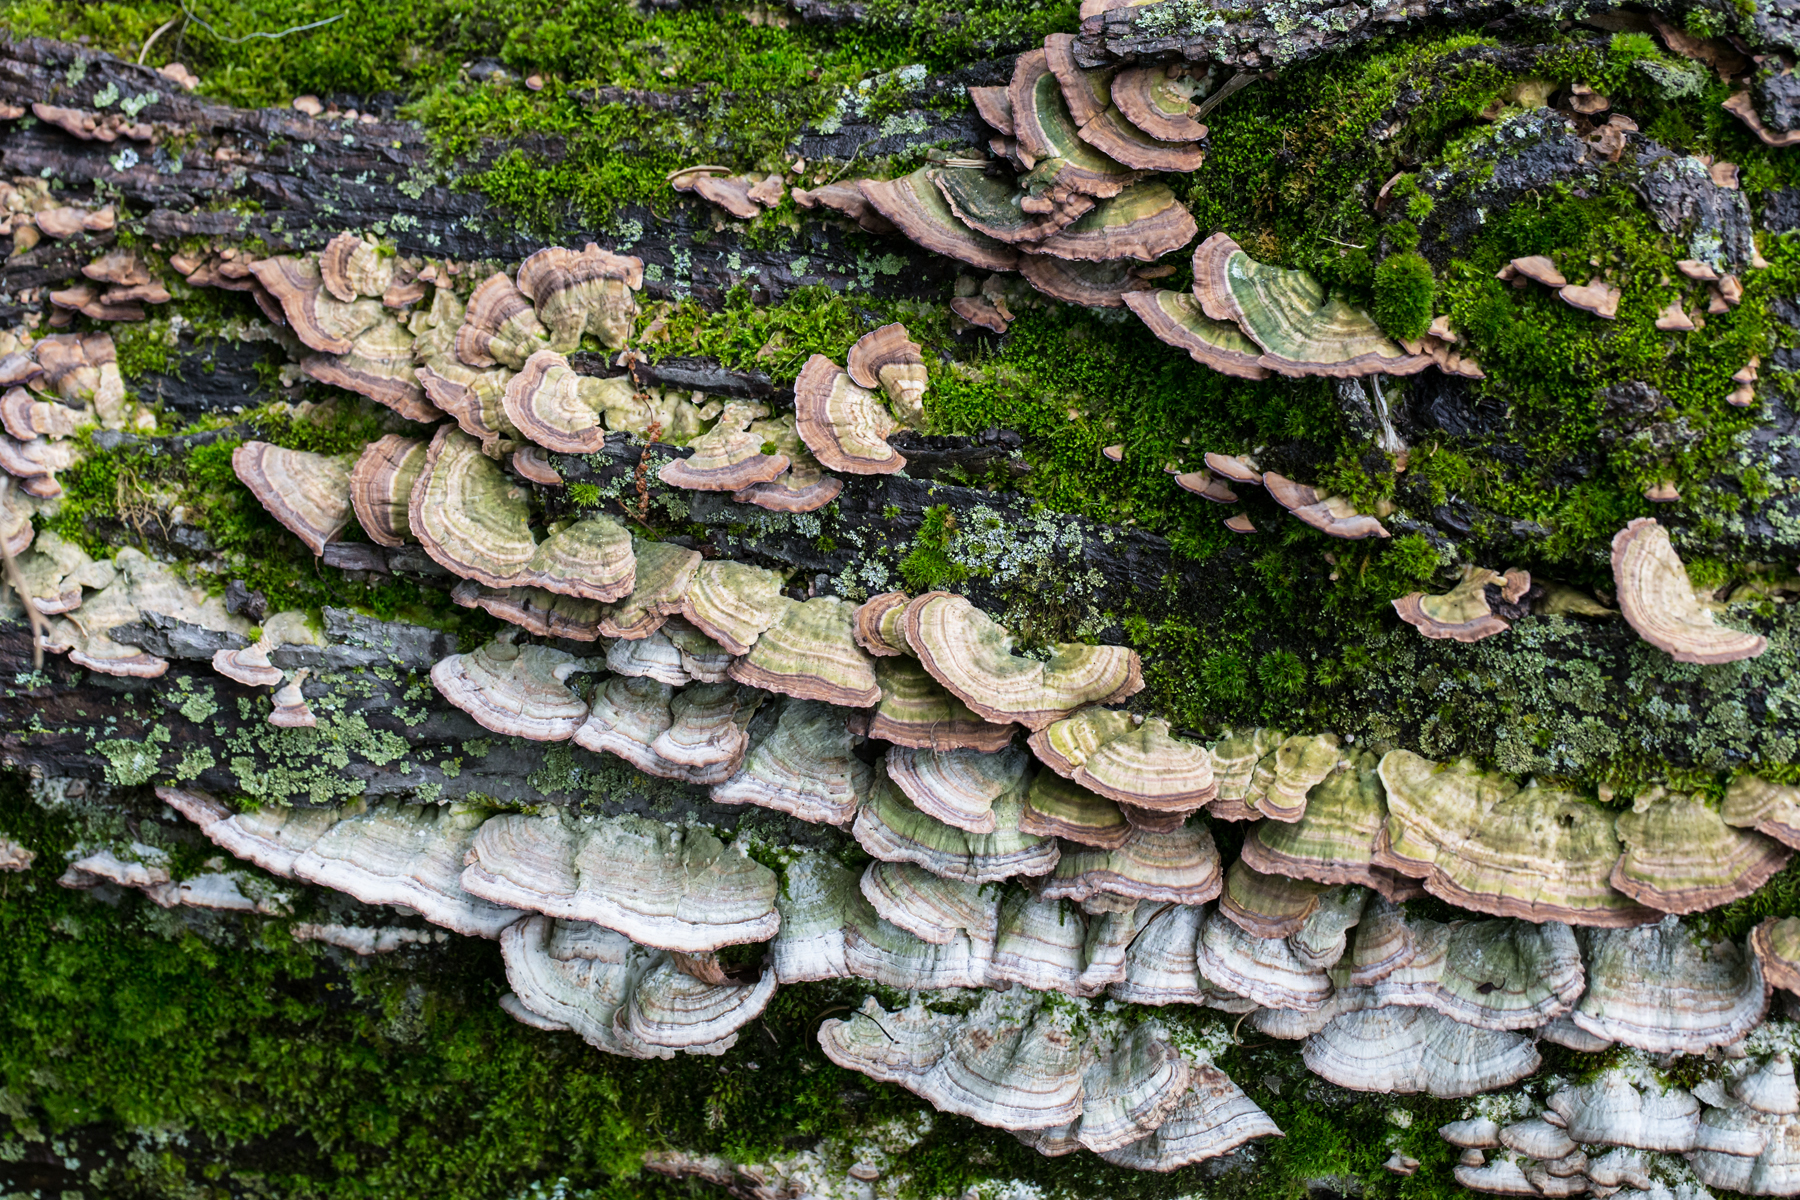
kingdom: Fungi
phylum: Basidiomycota
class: Agaricomycetes
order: Hymenochaetales
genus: Trichaptum
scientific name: Trichaptum biforme
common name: Violet-toothed polypore
